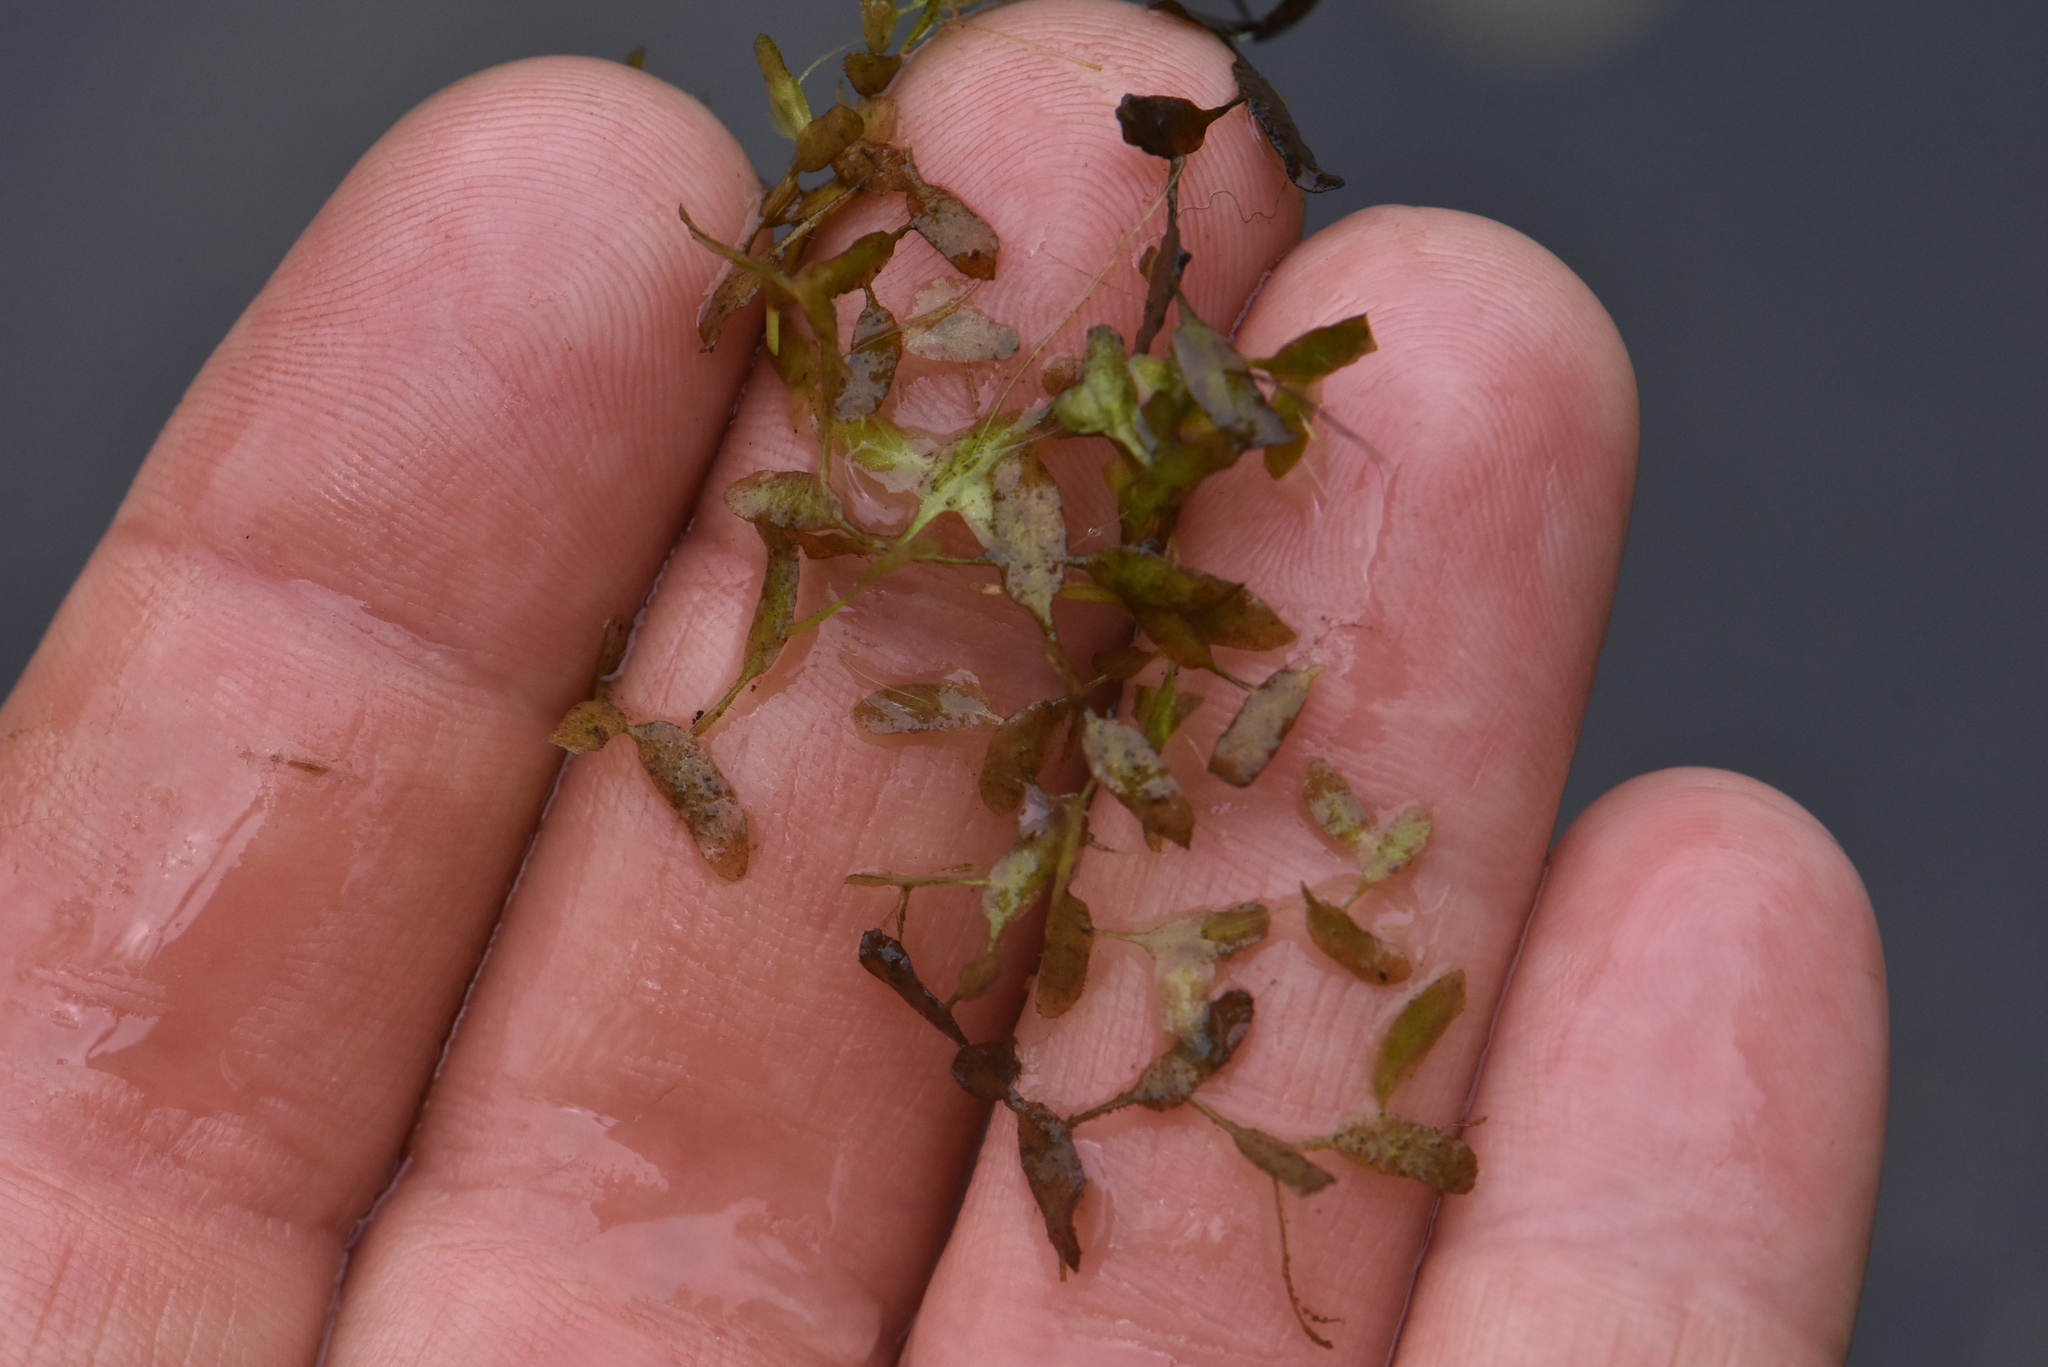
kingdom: Plantae
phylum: Tracheophyta
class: Liliopsida
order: Alismatales
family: Araceae
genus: Lemna
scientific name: Lemna trisulca
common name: Ivy-leaved duckweed
